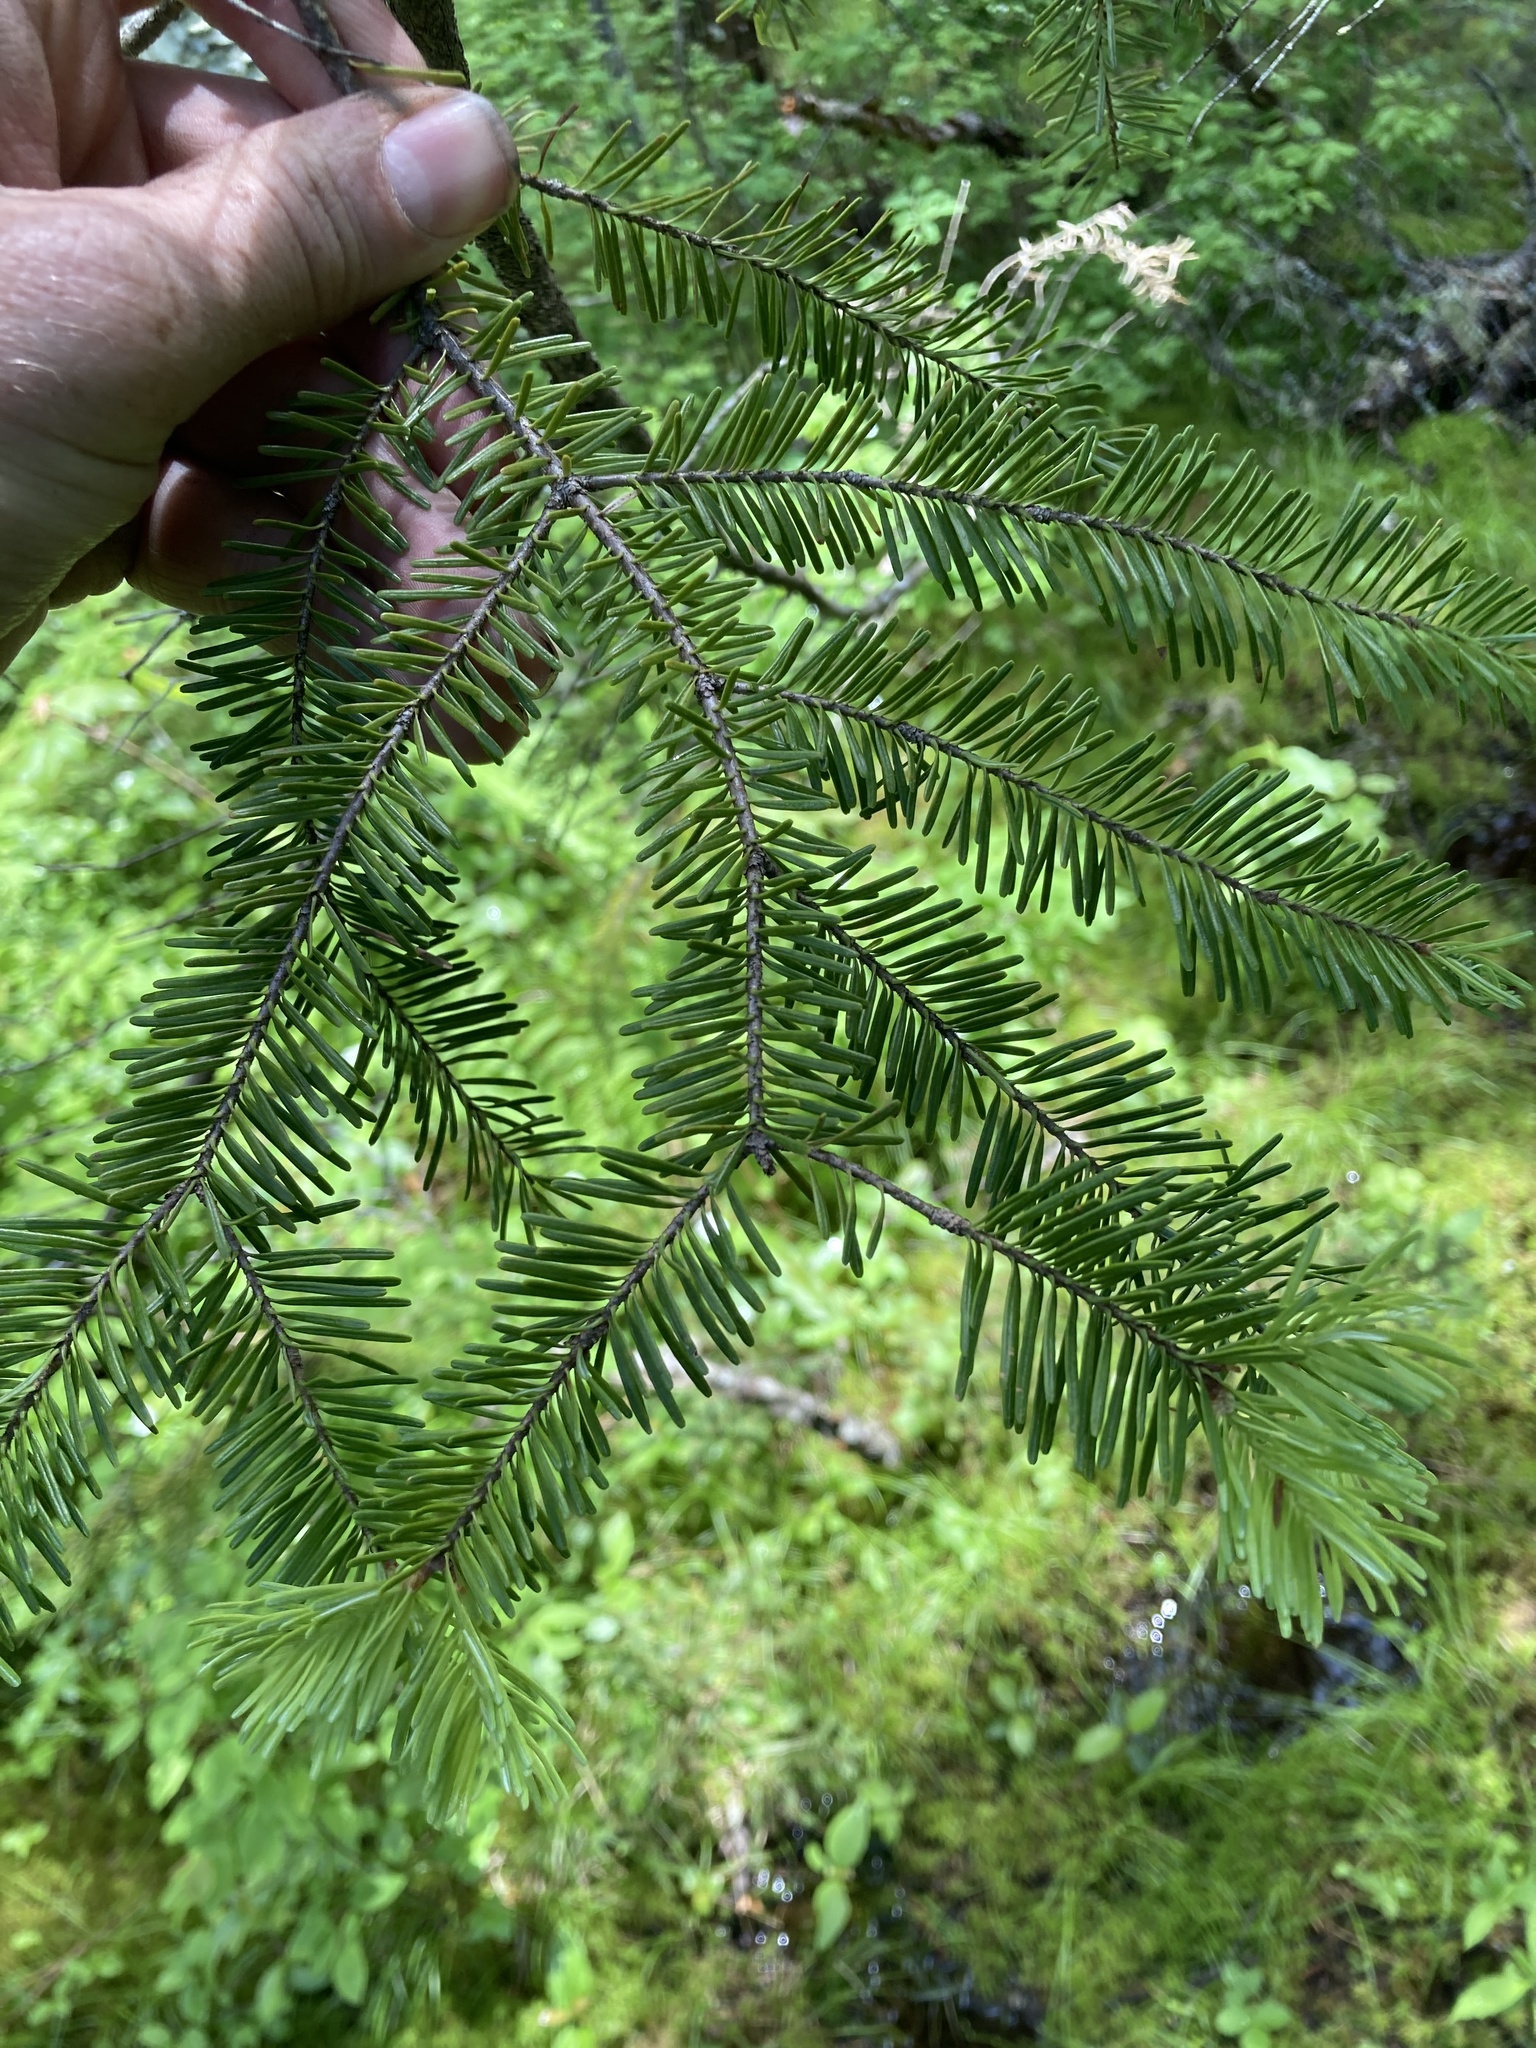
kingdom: Plantae
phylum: Tracheophyta
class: Pinopsida
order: Pinales
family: Pinaceae
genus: Abies
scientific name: Abies balsamea
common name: Balsam fir
